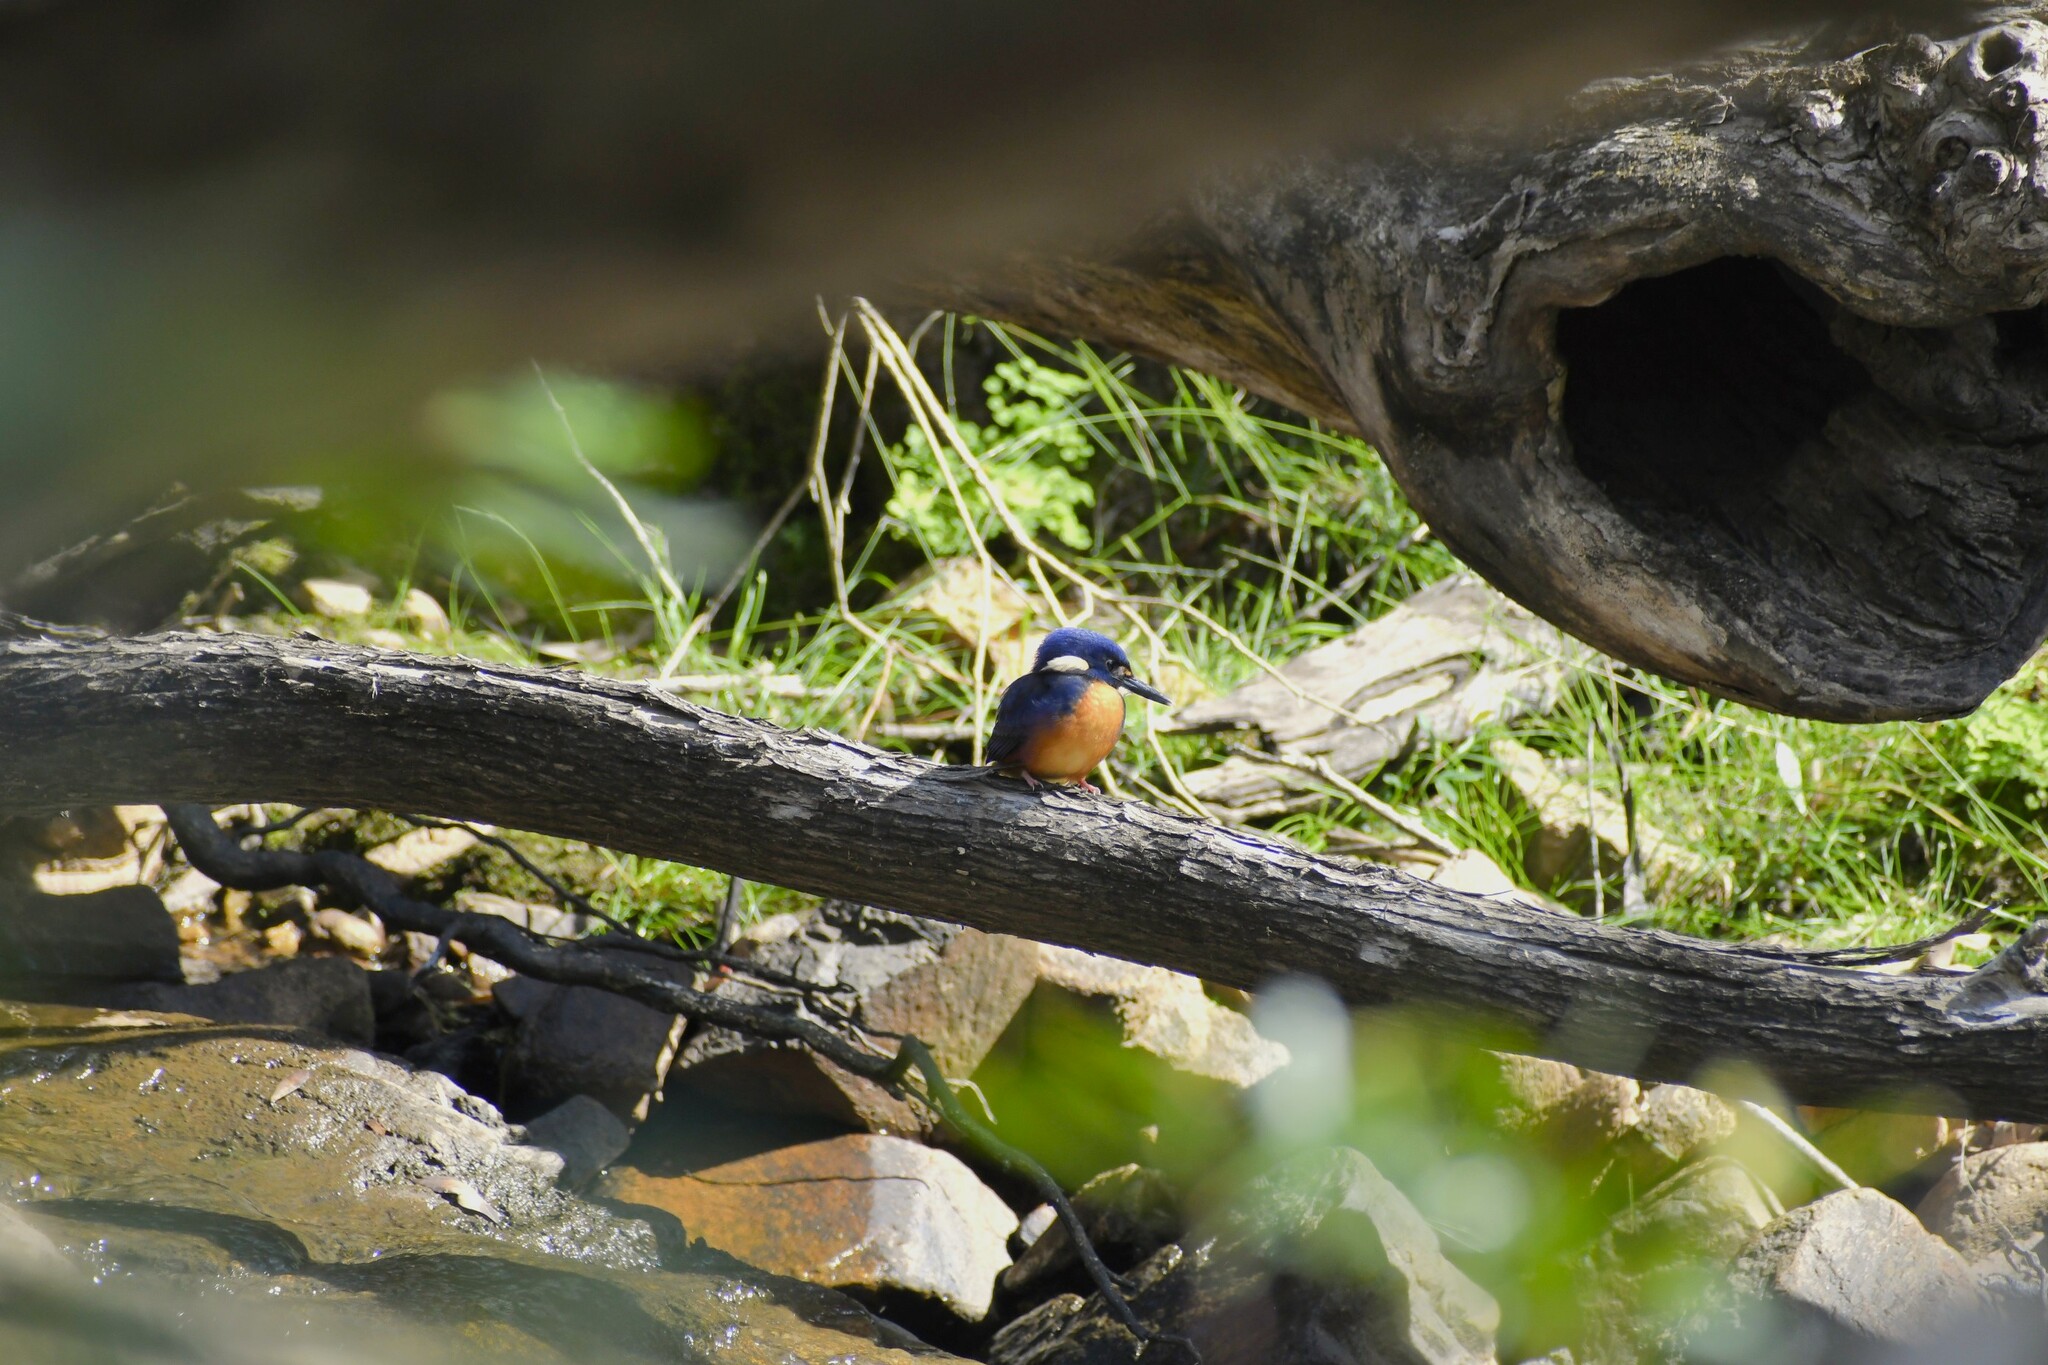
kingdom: Animalia
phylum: Chordata
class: Aves
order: Coraciiformes
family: Alcedinidae
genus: Ceyx
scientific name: Ceyx azureus
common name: Azure kingfisher
